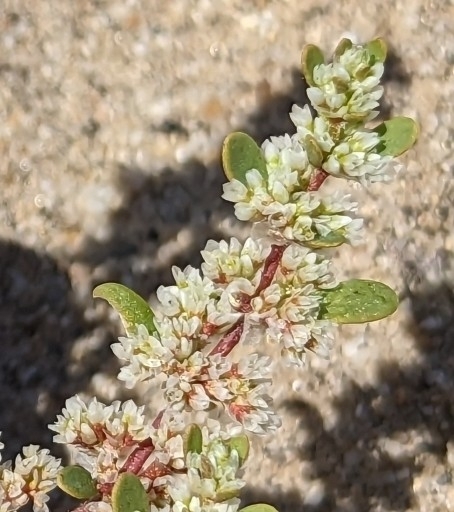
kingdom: Plantae
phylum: Tracheophyta
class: Magnoliopsida
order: Caryophyllales
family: Caryophyllaceae
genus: Achyronychia
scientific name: Achyronychia cooperi
